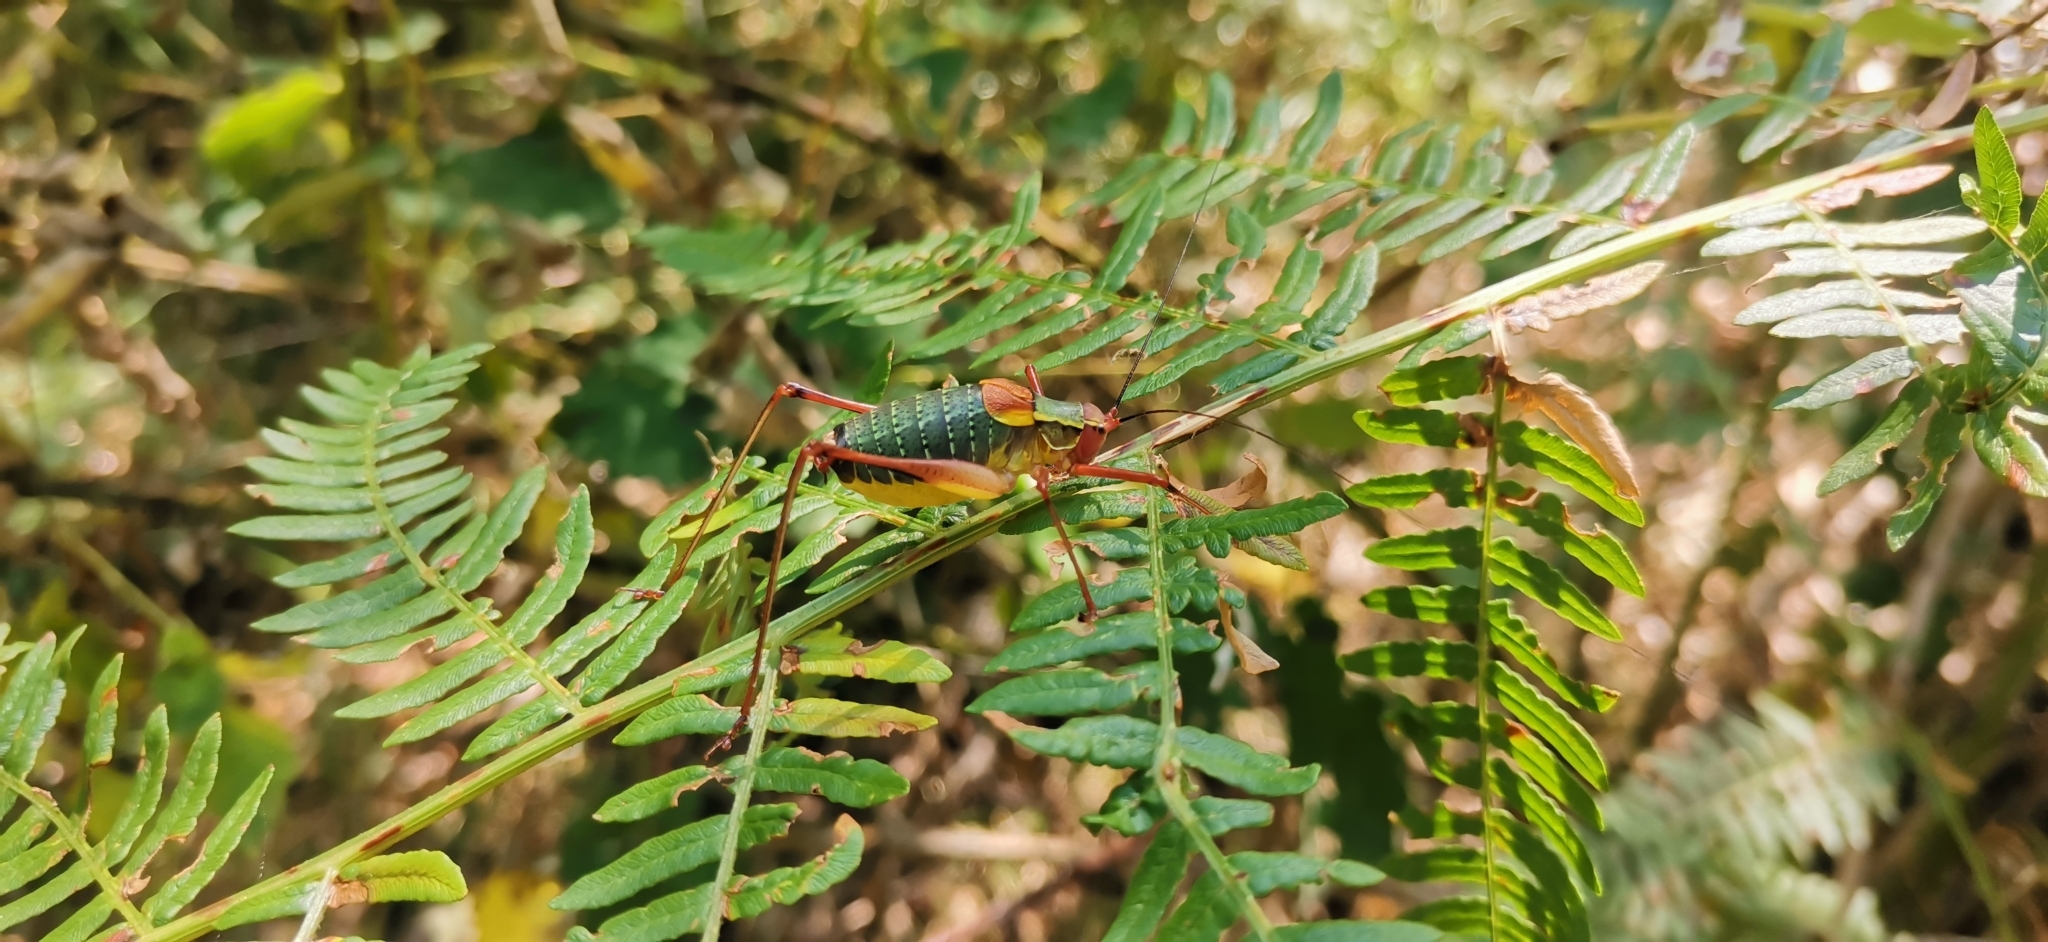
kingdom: Animalia
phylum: Arthropoda
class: Insecta
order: Orthoptera
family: Tettigoniidae
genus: Barbitistes
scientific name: Barbitistes obtusus
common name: Alpine saw bush-cricket
